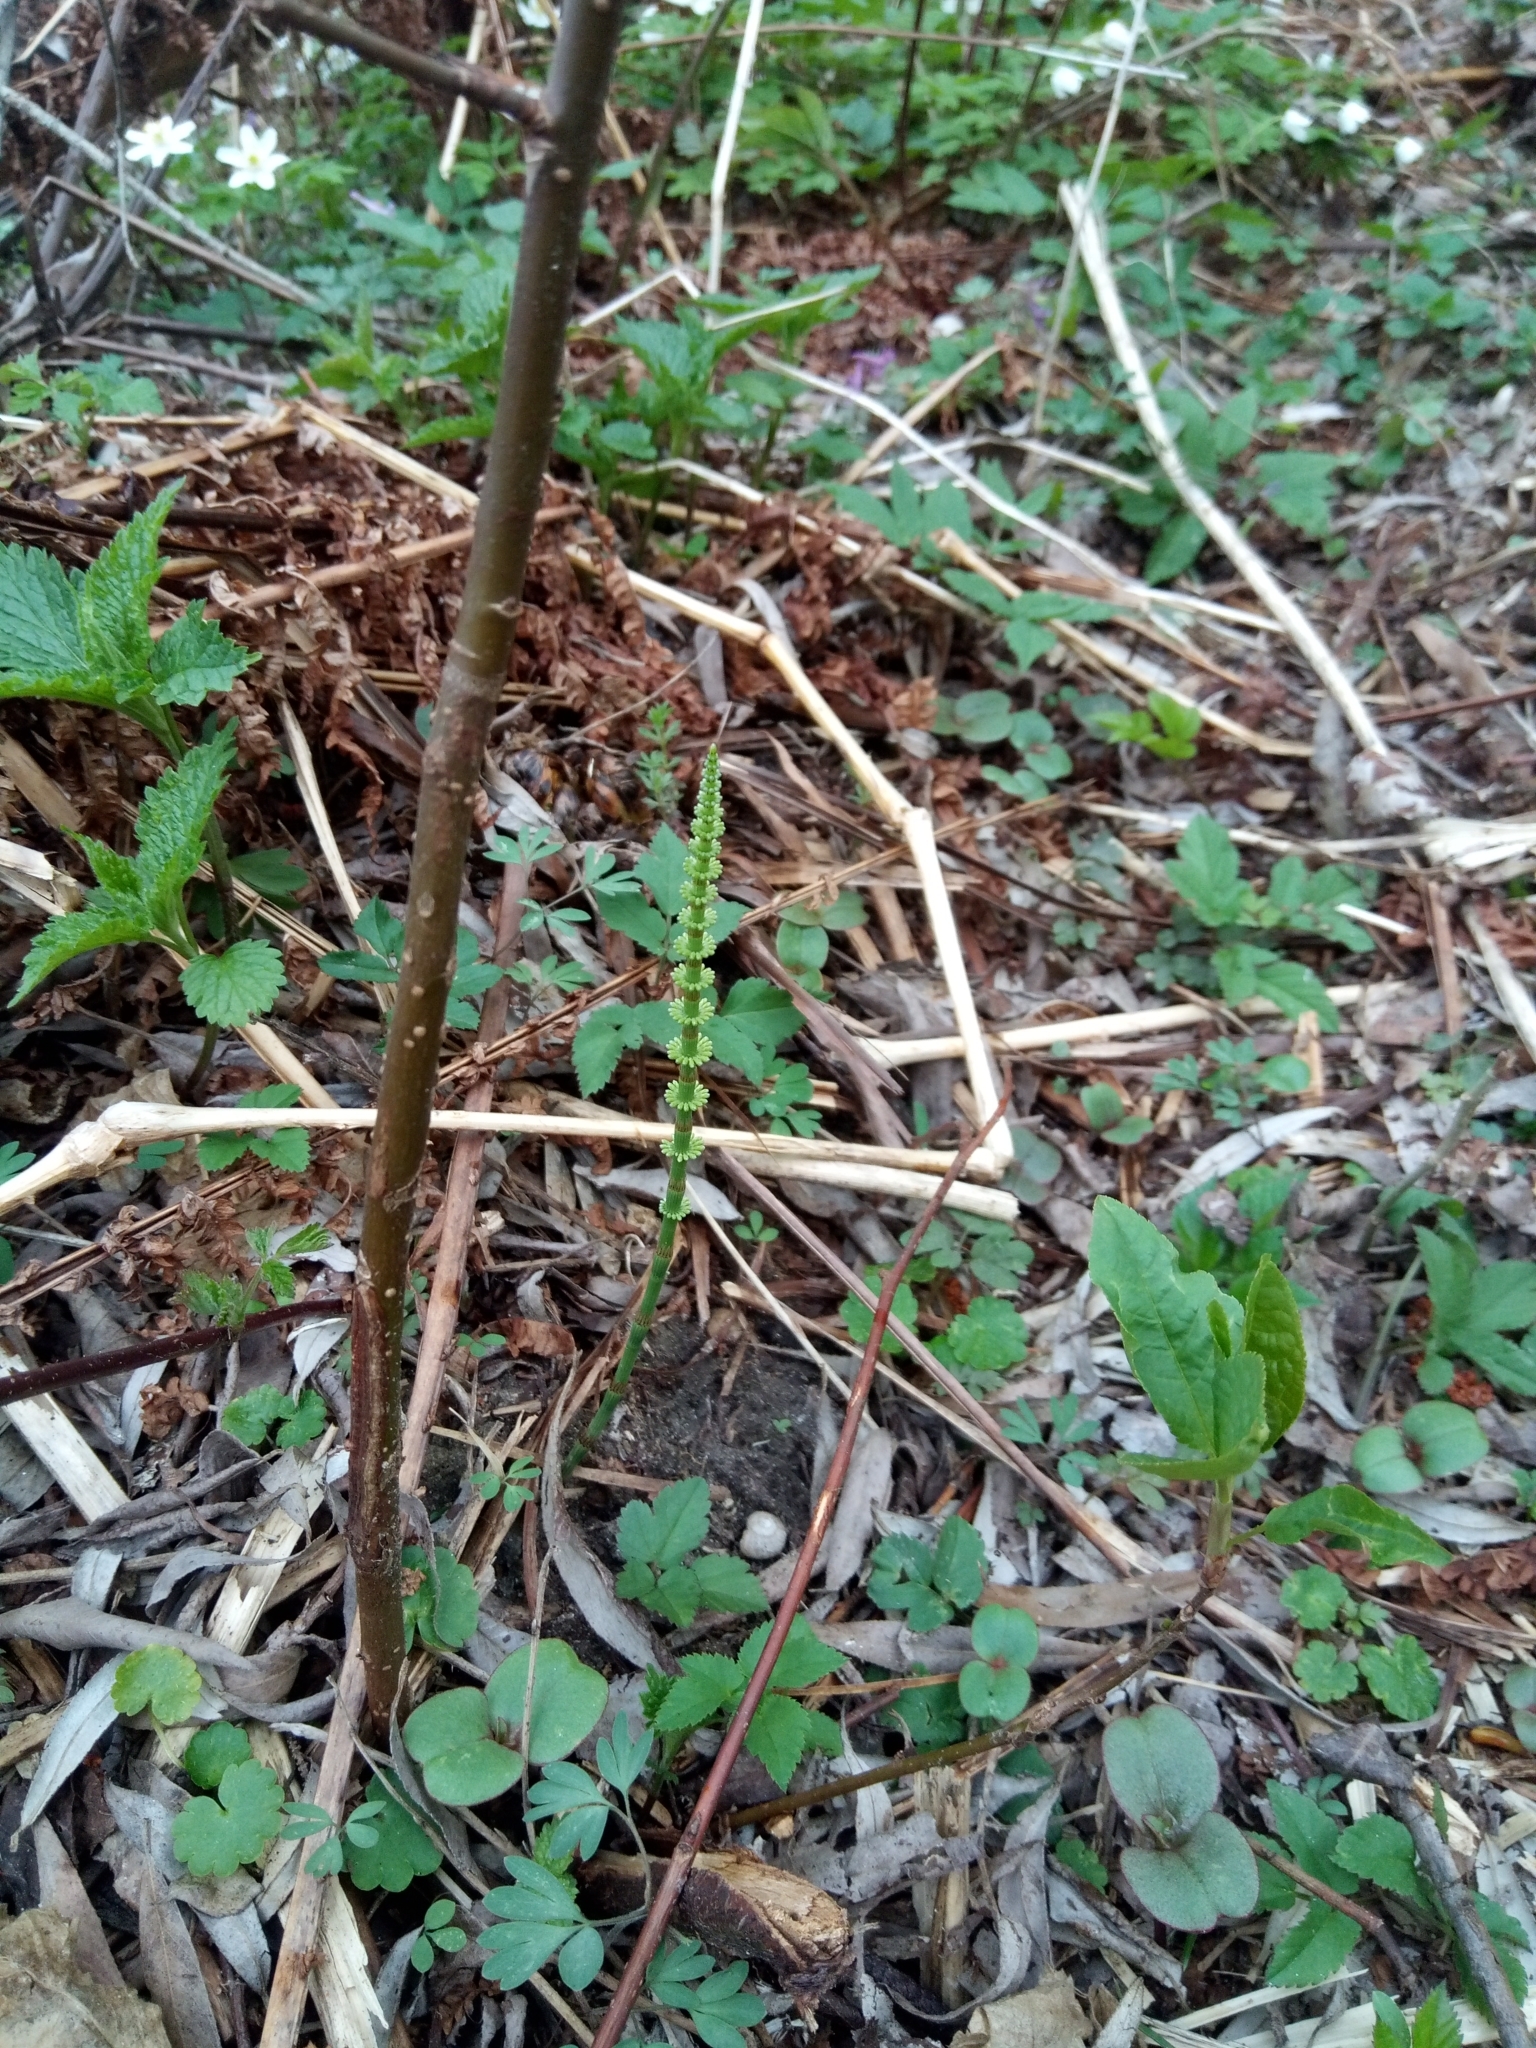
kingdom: Plantae
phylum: Tracheophyta
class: Polypodiopsida
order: Equisetales
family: Equisetaceae
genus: Equisetum
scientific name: Equisetum pratense
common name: Meadow horsetail
